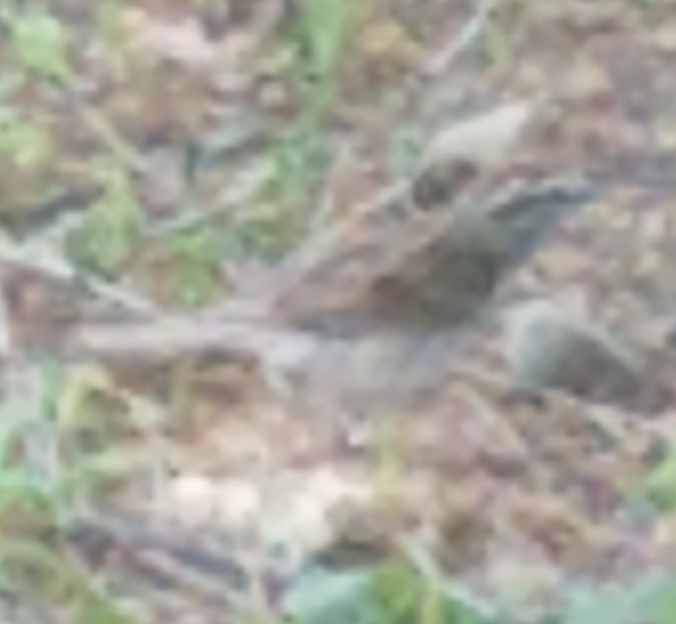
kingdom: Animalia
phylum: Chordata
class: Aves
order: Passeriformes
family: Passerellidae
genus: Spizella
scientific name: Spizella passerina
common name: Chipping sparrow
